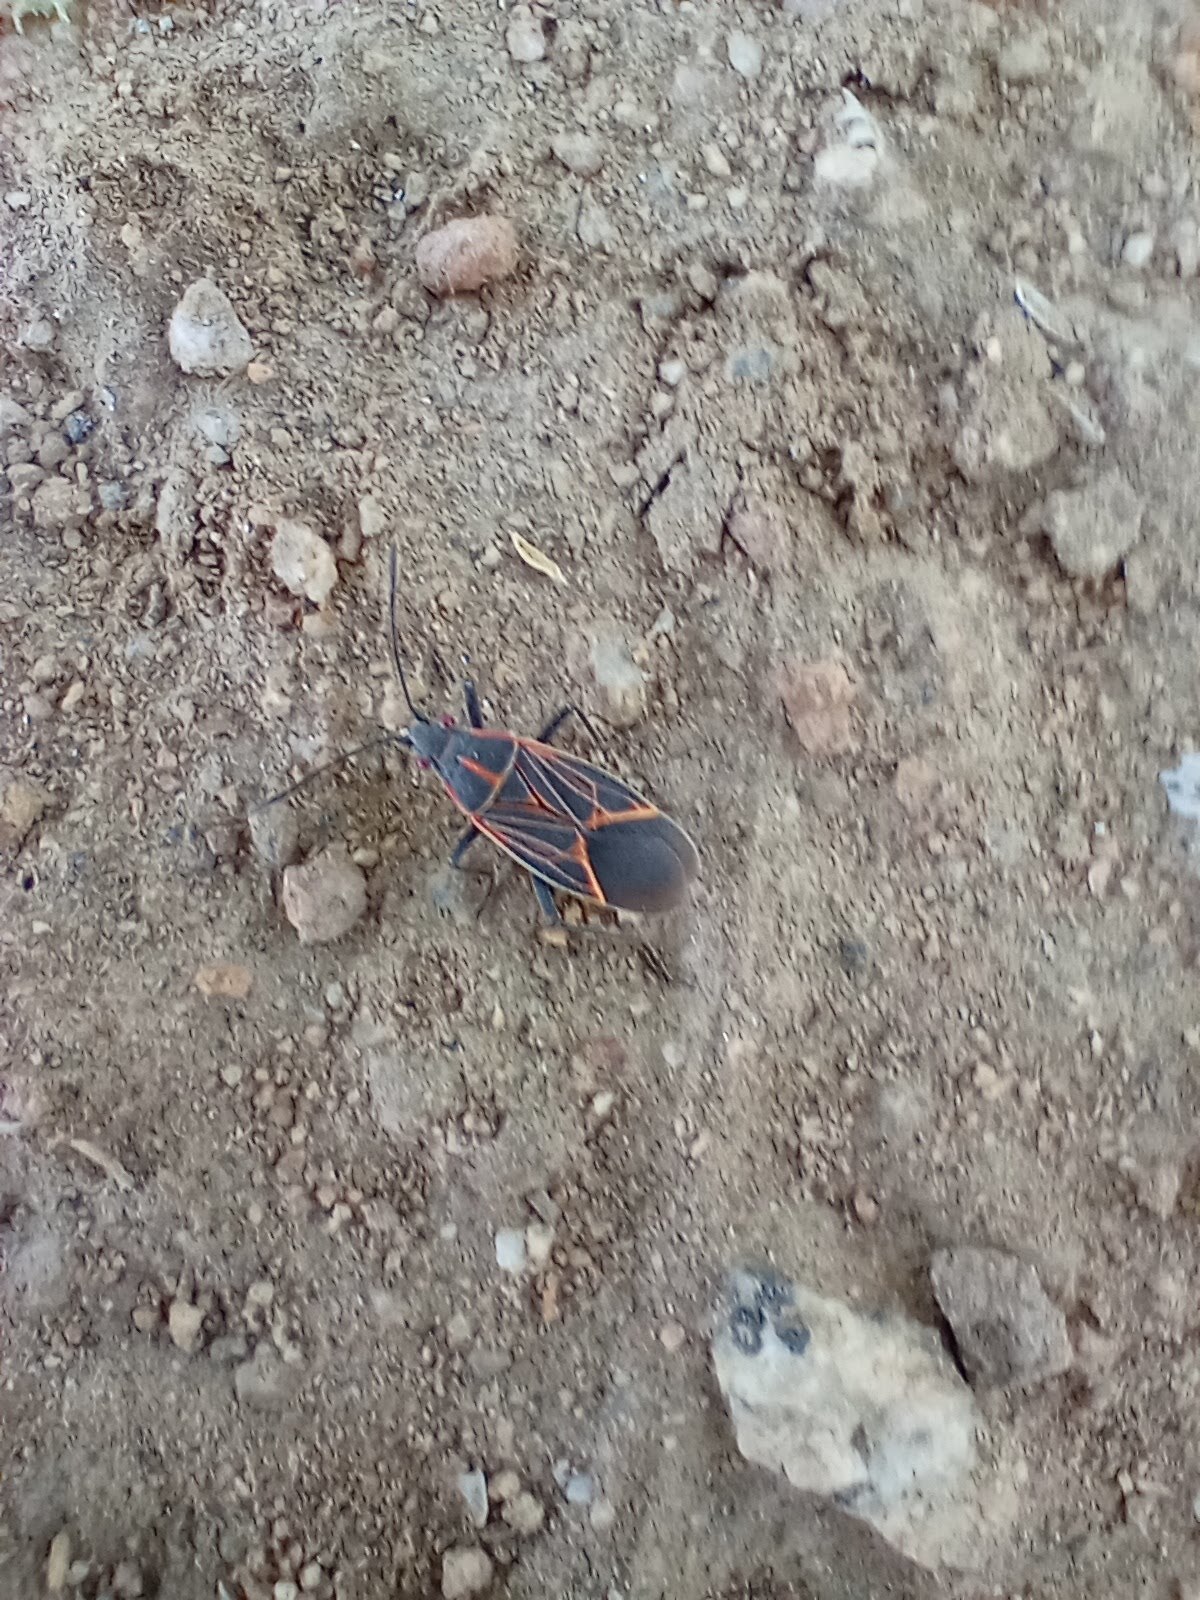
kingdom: Animalia
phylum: Arthropoda
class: Insecta
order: Hemiptera
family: Rhopalidae
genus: Boisea
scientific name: Boisea rubrolineata
